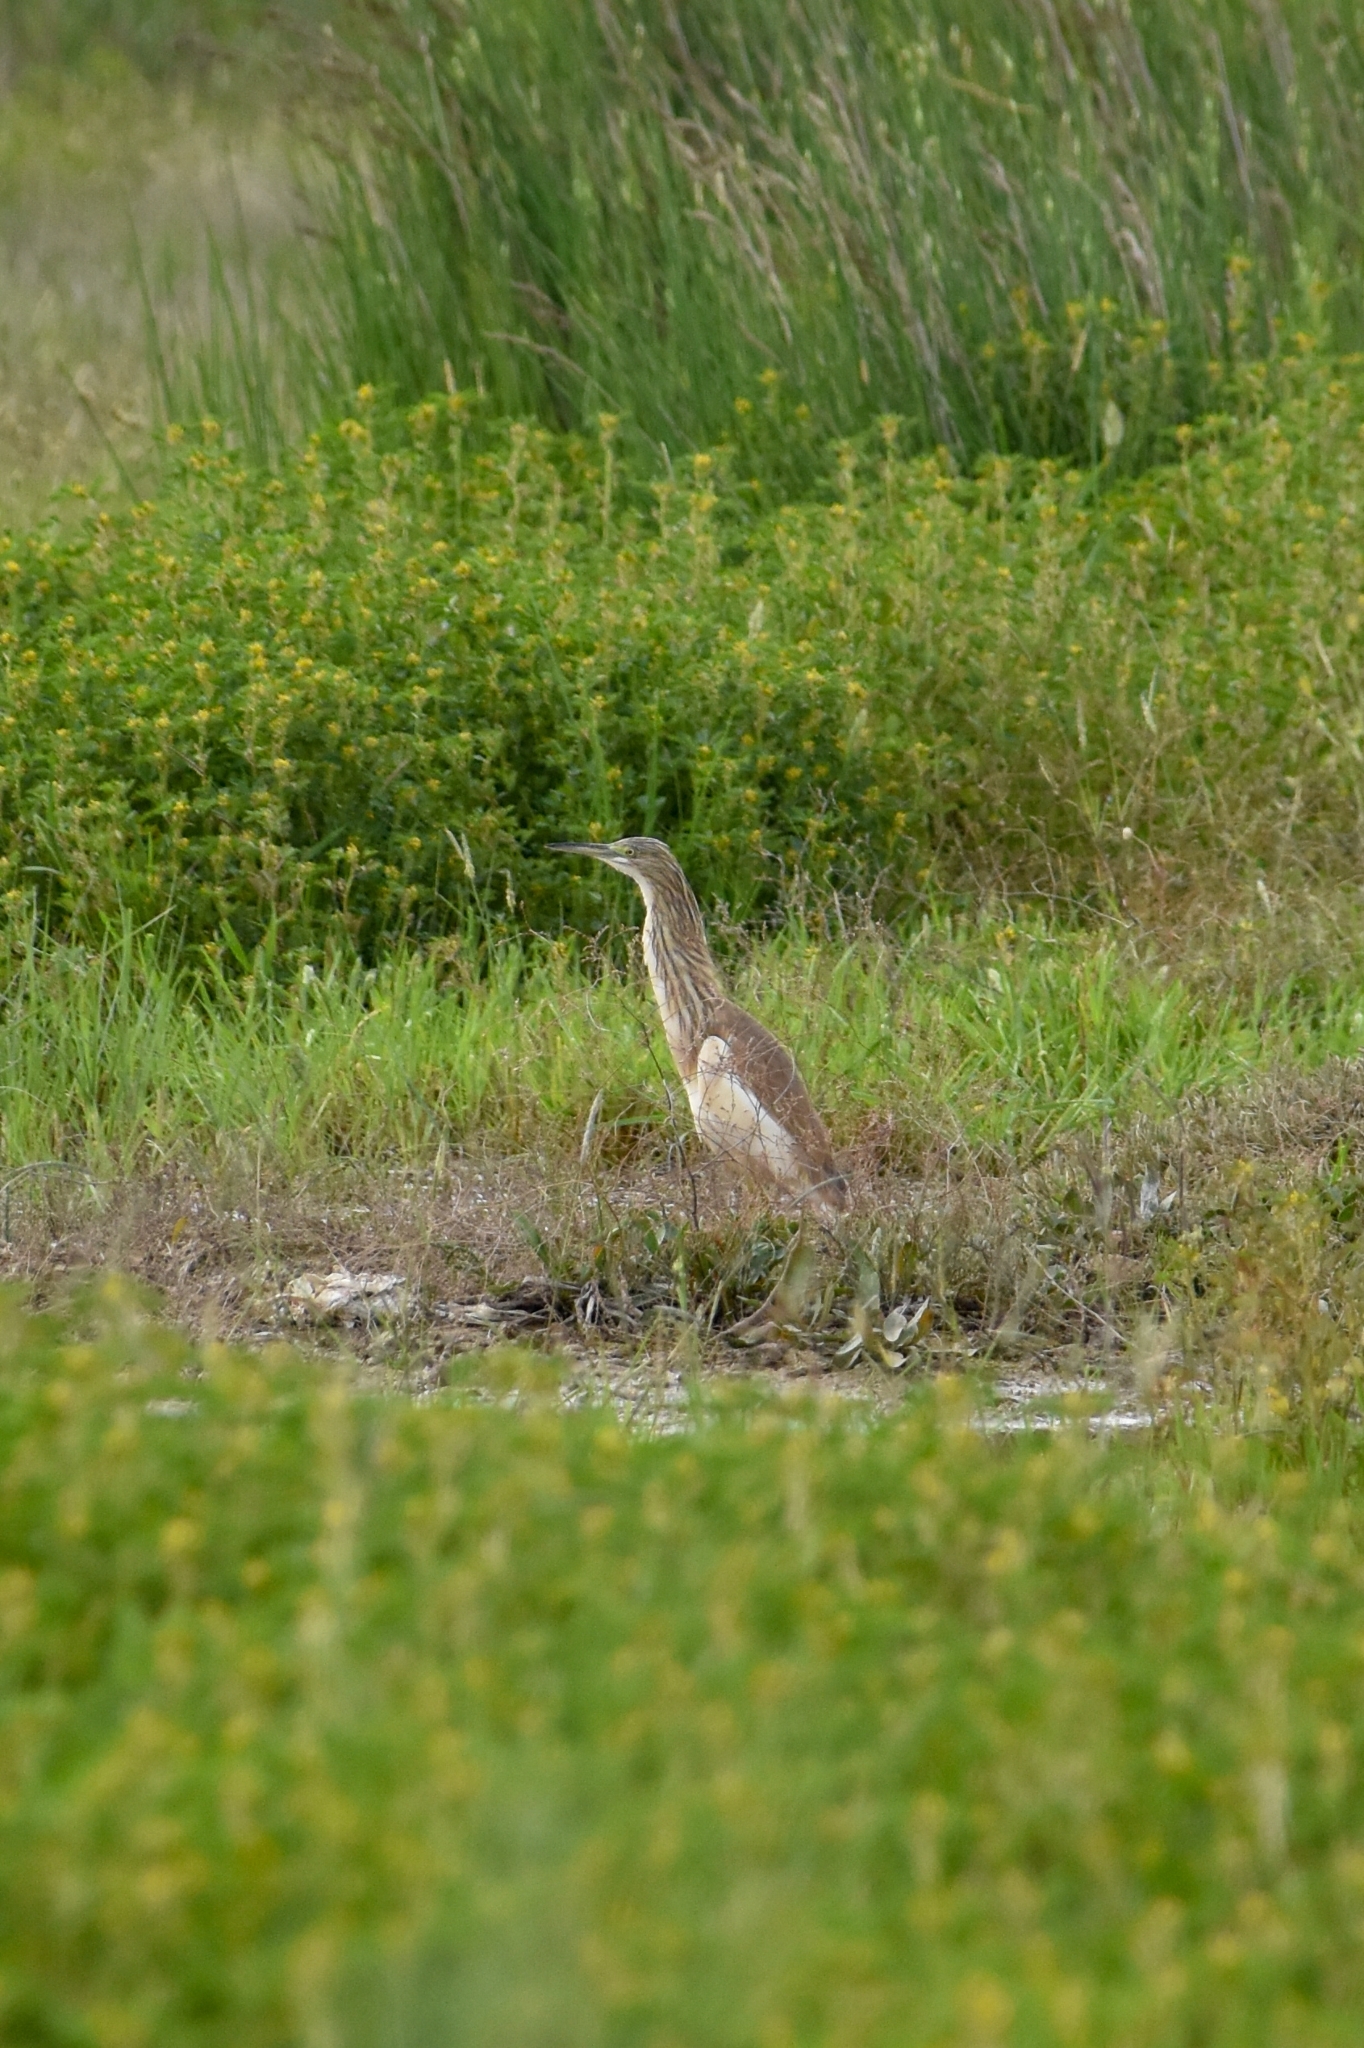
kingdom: Animalia
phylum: Chordata
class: Aves
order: Pelecaniformes
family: Ardeidae
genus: Ardeola
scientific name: Ardeola ralloides
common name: Squacco heron
